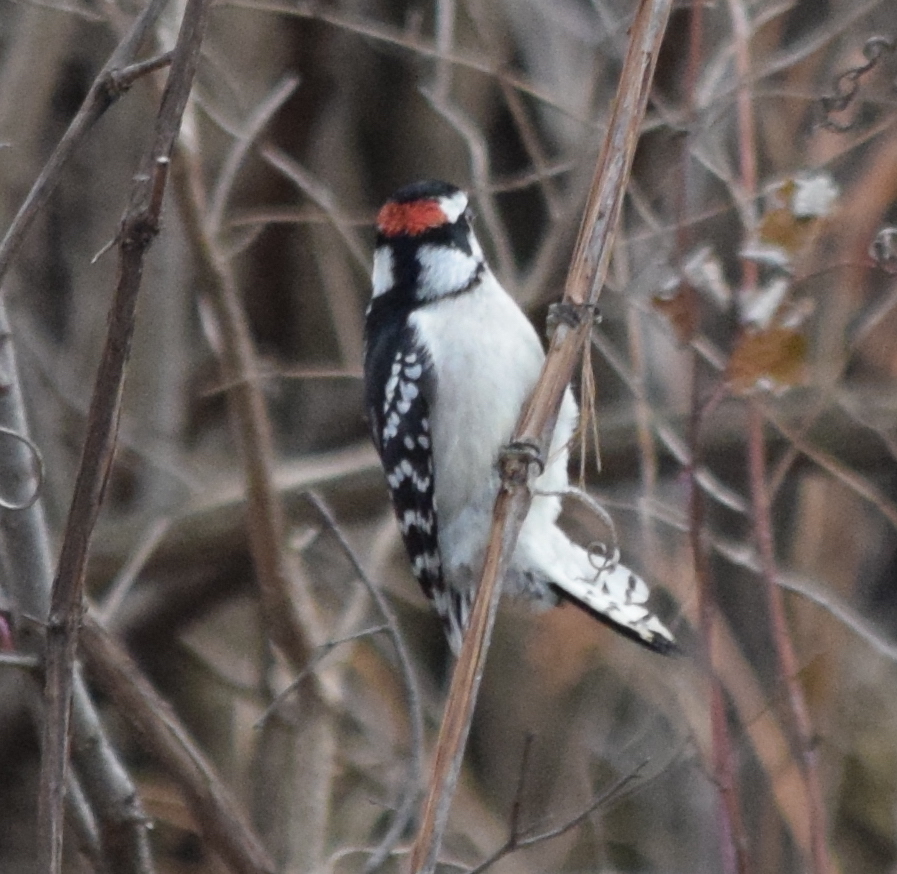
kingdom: Animalia
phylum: Chordata
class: Aves
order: Piciformes
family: Picidae
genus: Dryobates
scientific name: Dryobates pubescens
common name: Downy woodpecker
